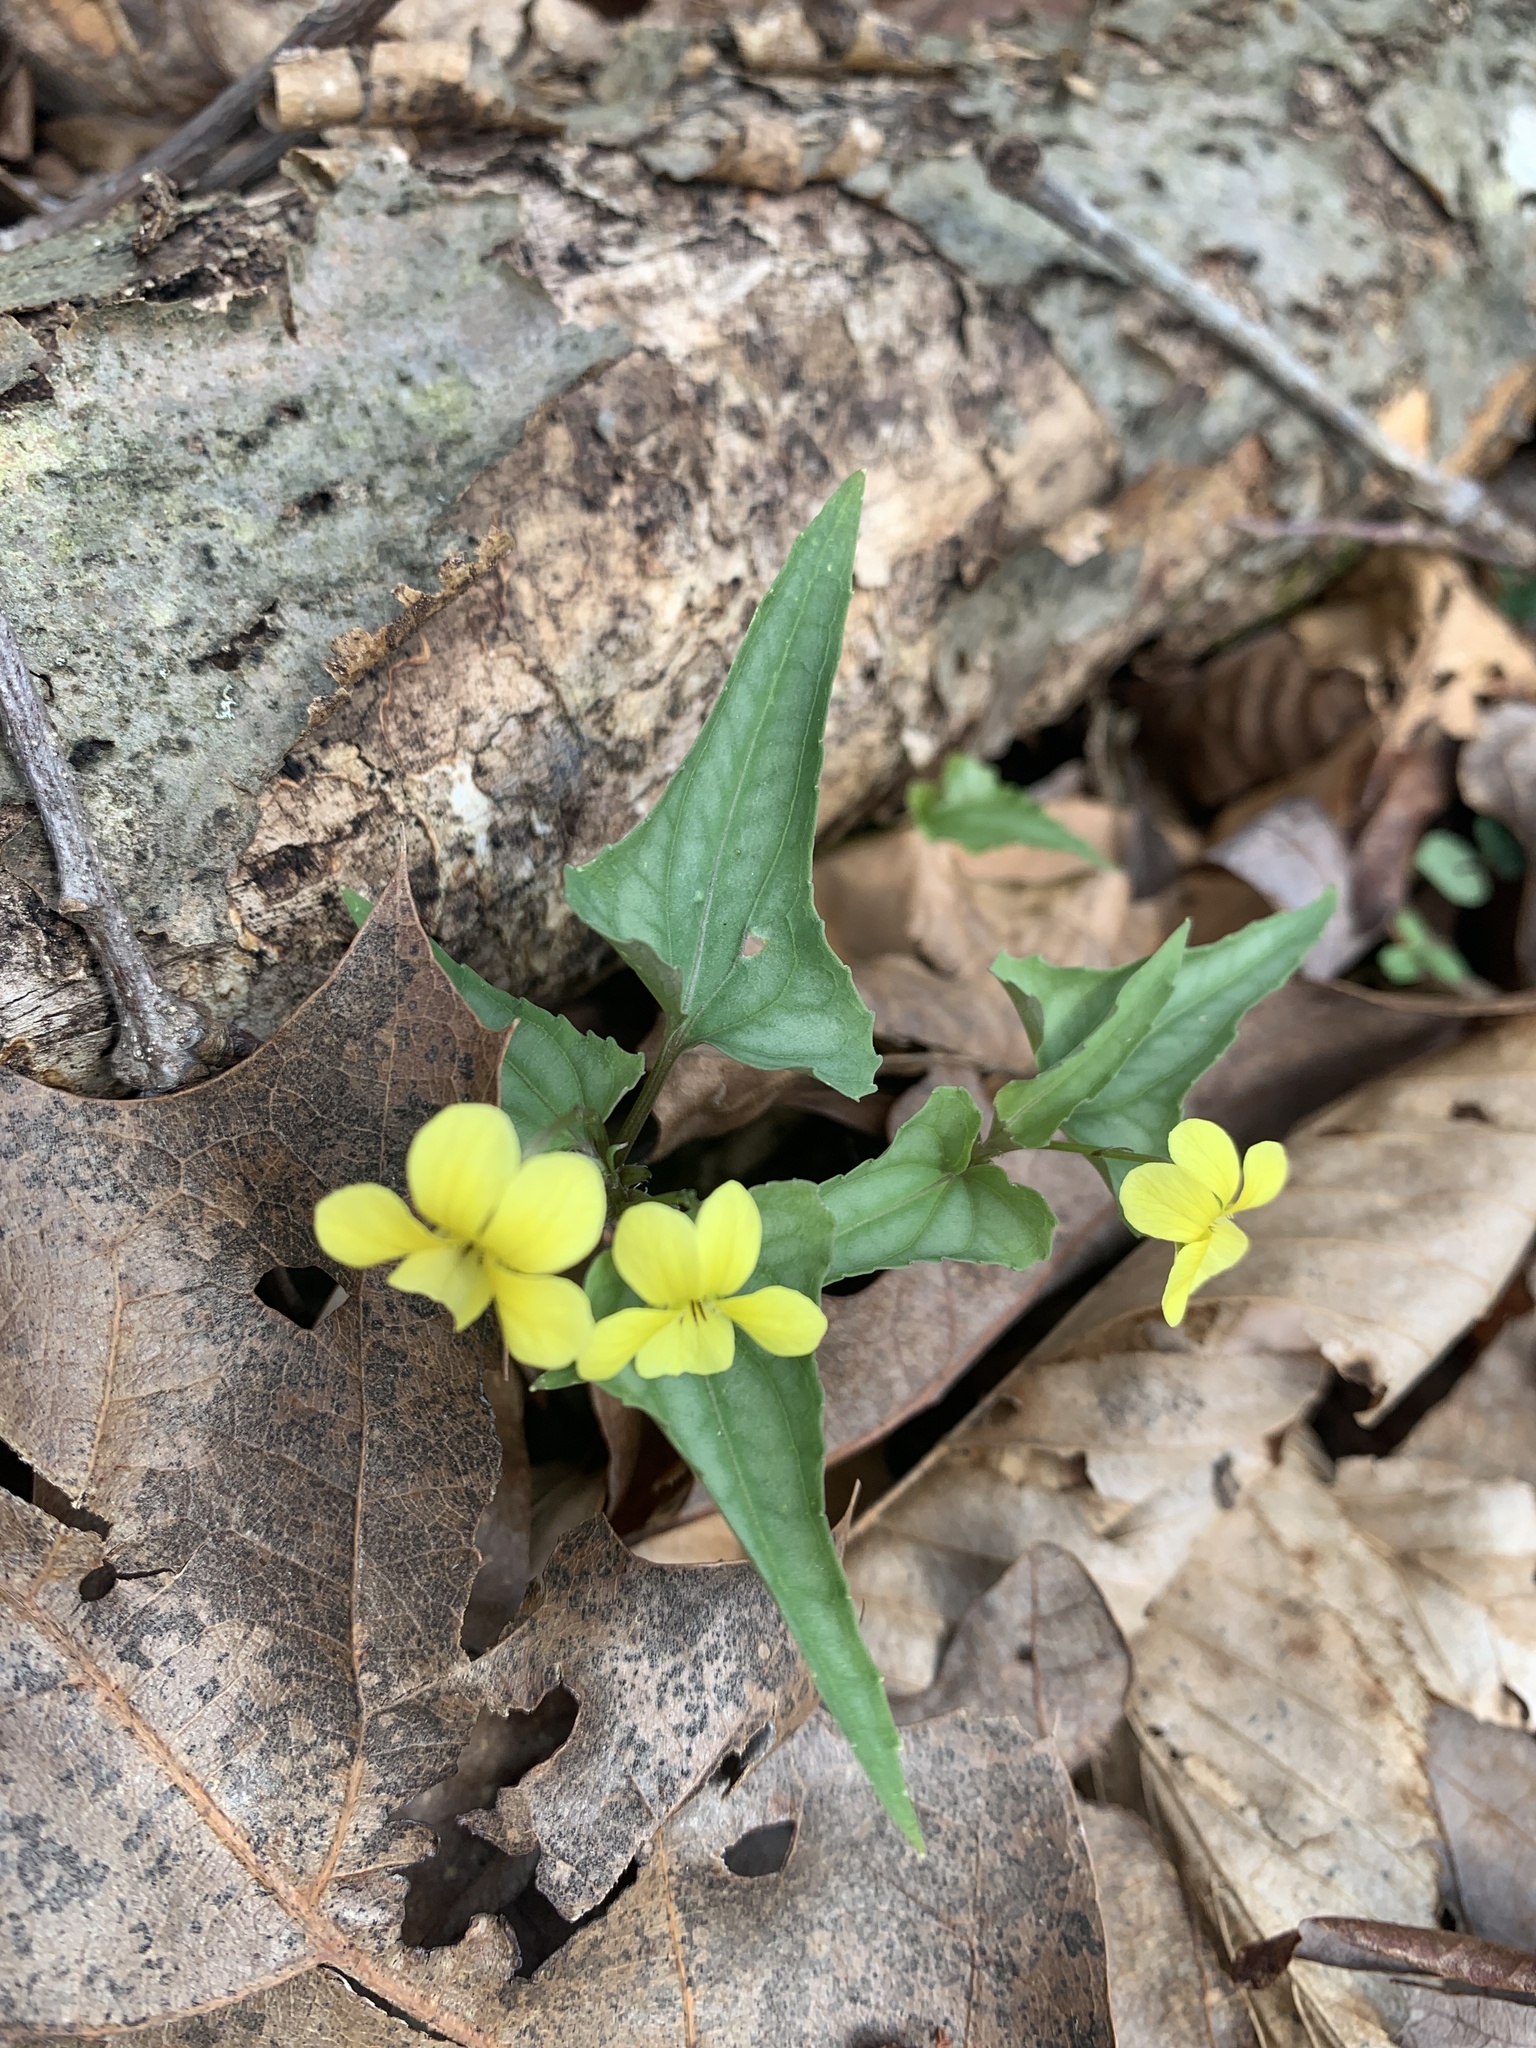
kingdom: Plantae
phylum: Tracheophyta
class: Magnoliopsida
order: Malpighiales
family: Violaceae
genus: Viola
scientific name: Viola hastata
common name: Spear-leaf violet
